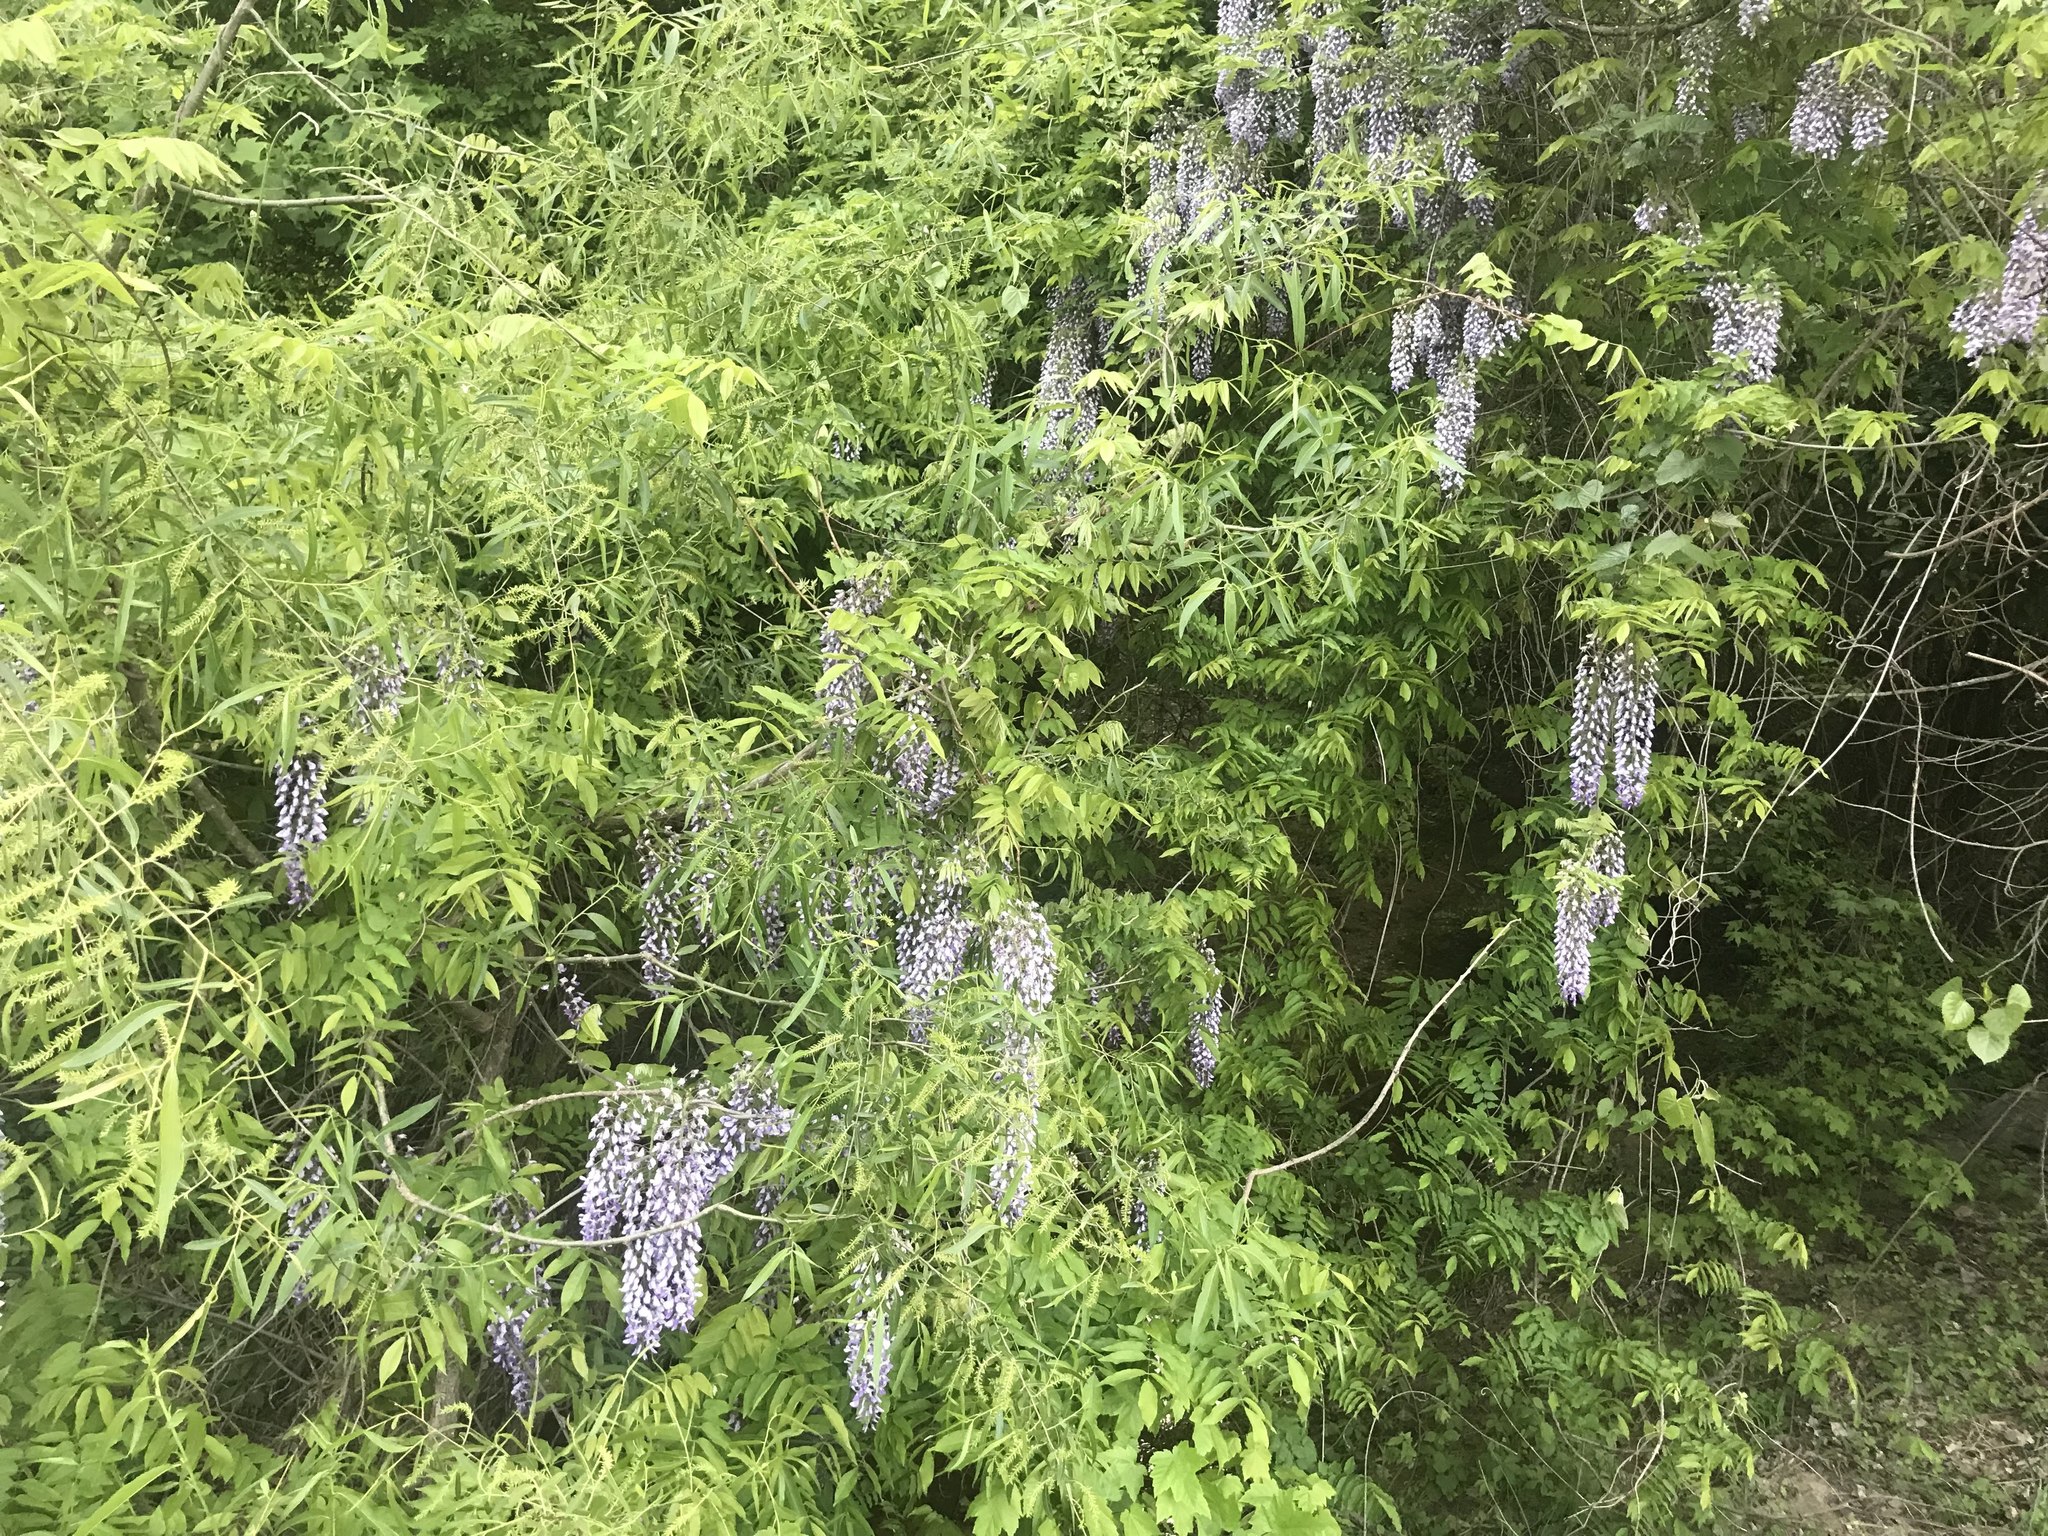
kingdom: Plantae
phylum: Tracheophyta
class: Magnoliopsida
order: Fabales
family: Fabaceae
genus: Wisteria
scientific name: Wisteria floribunda
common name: Japanese wisteria
